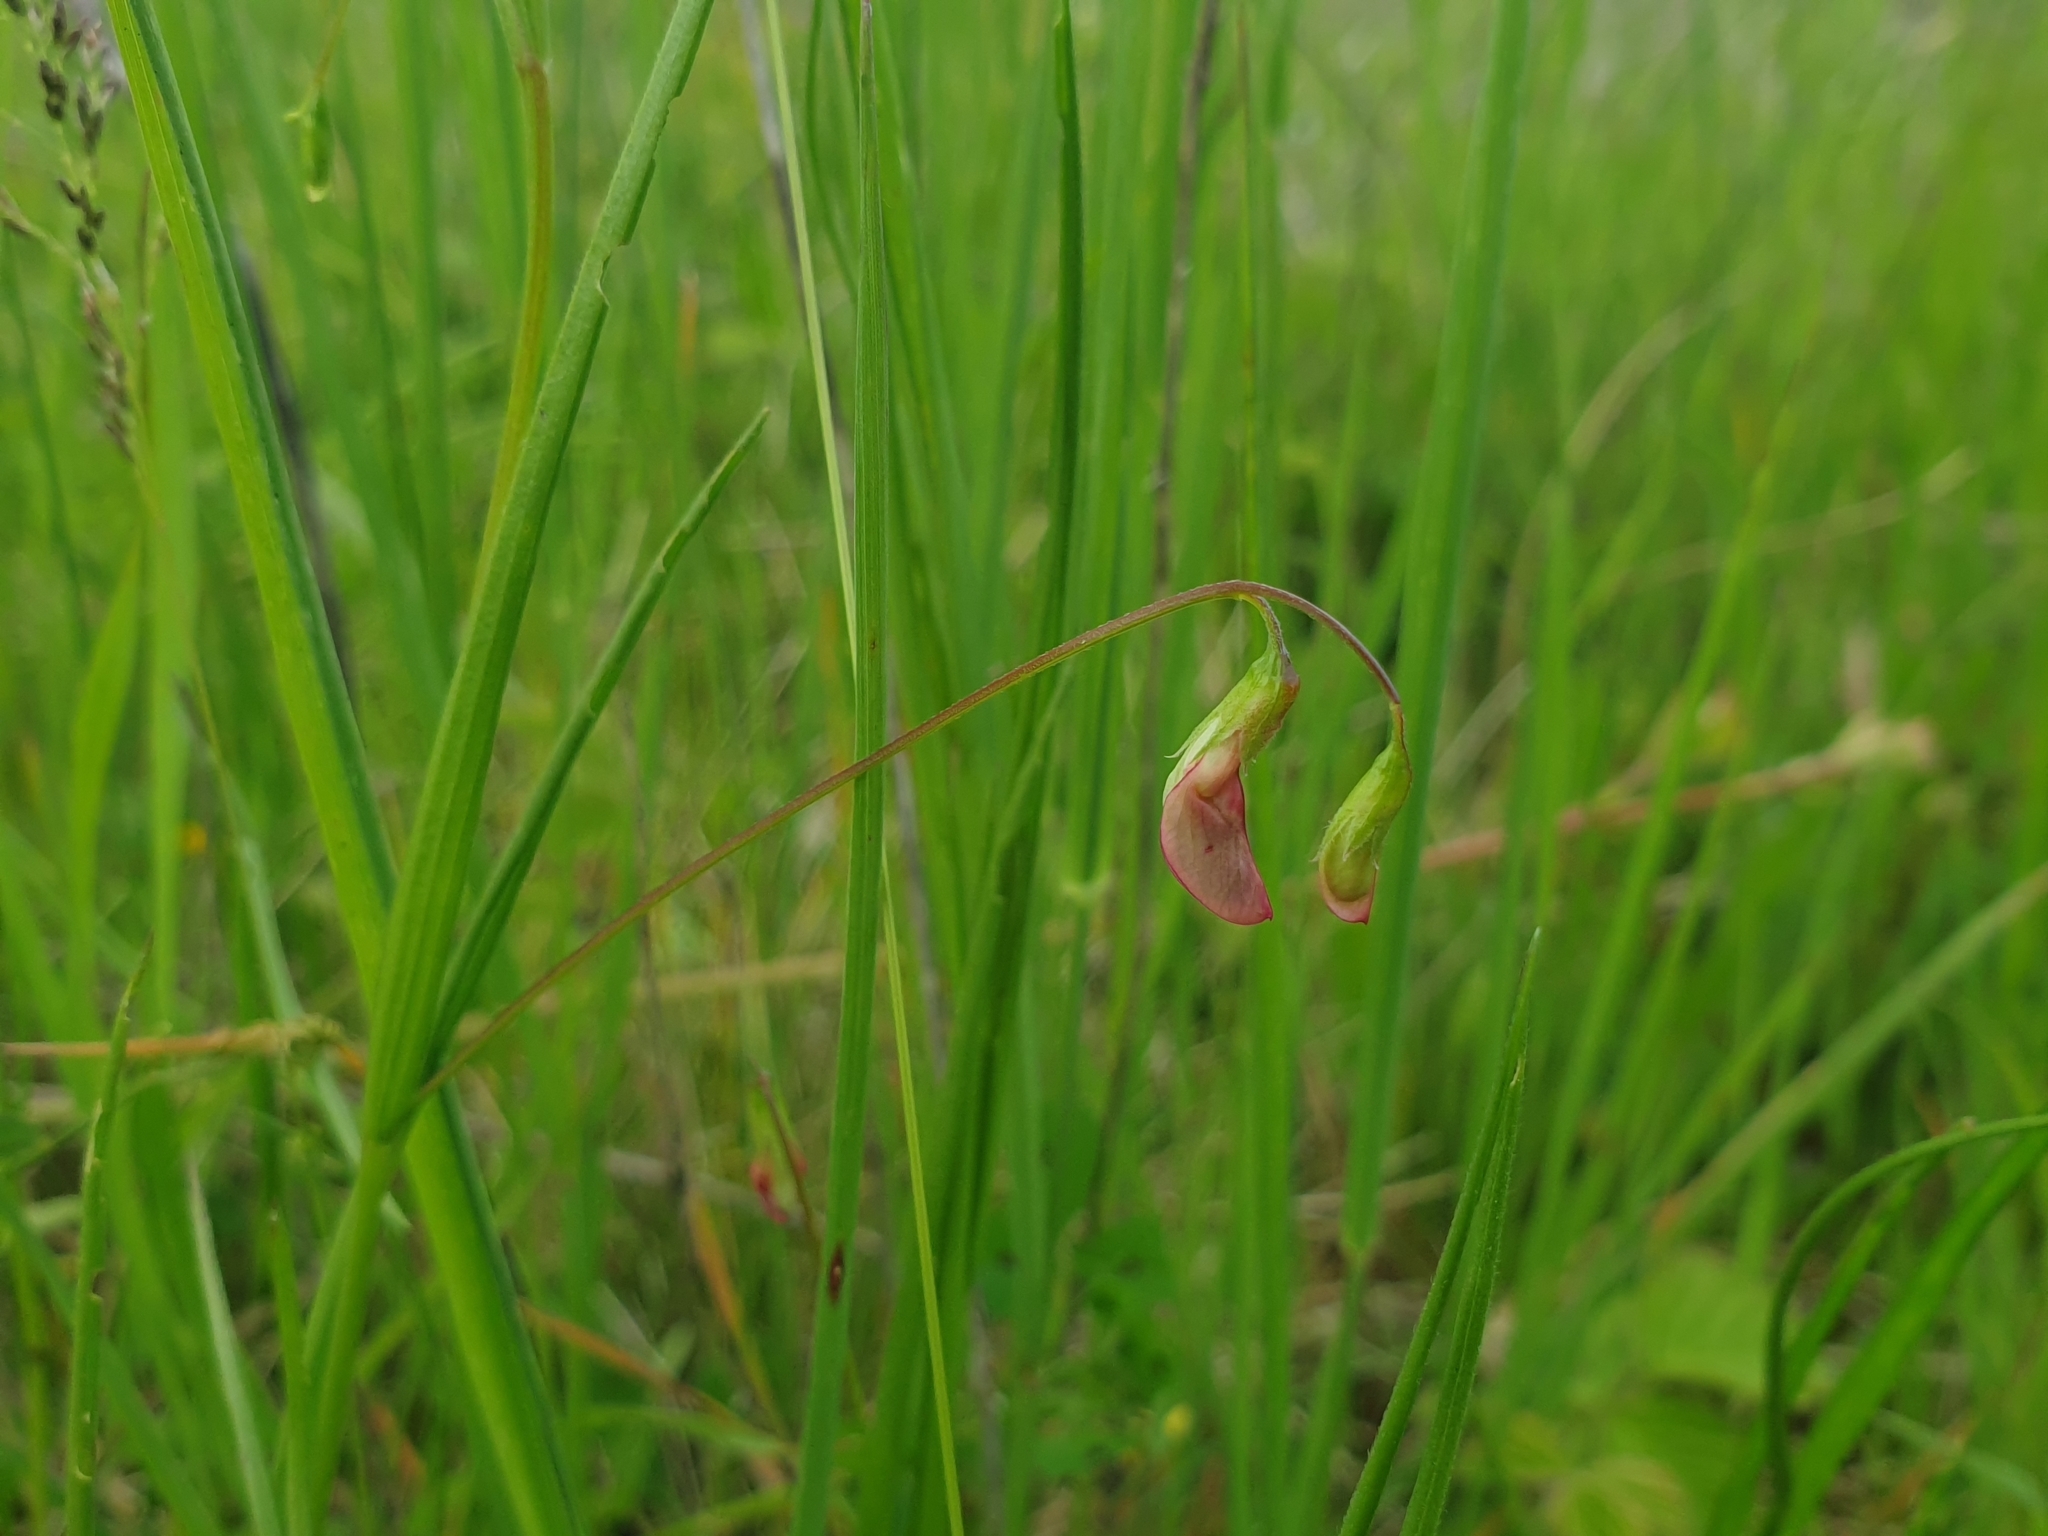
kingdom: Plantae
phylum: Tracheophyta
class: Magnoliopsida
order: Fabales
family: Fabaceae
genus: Lathyrus
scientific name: Lathyrus nissolia
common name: Grass vetchling
